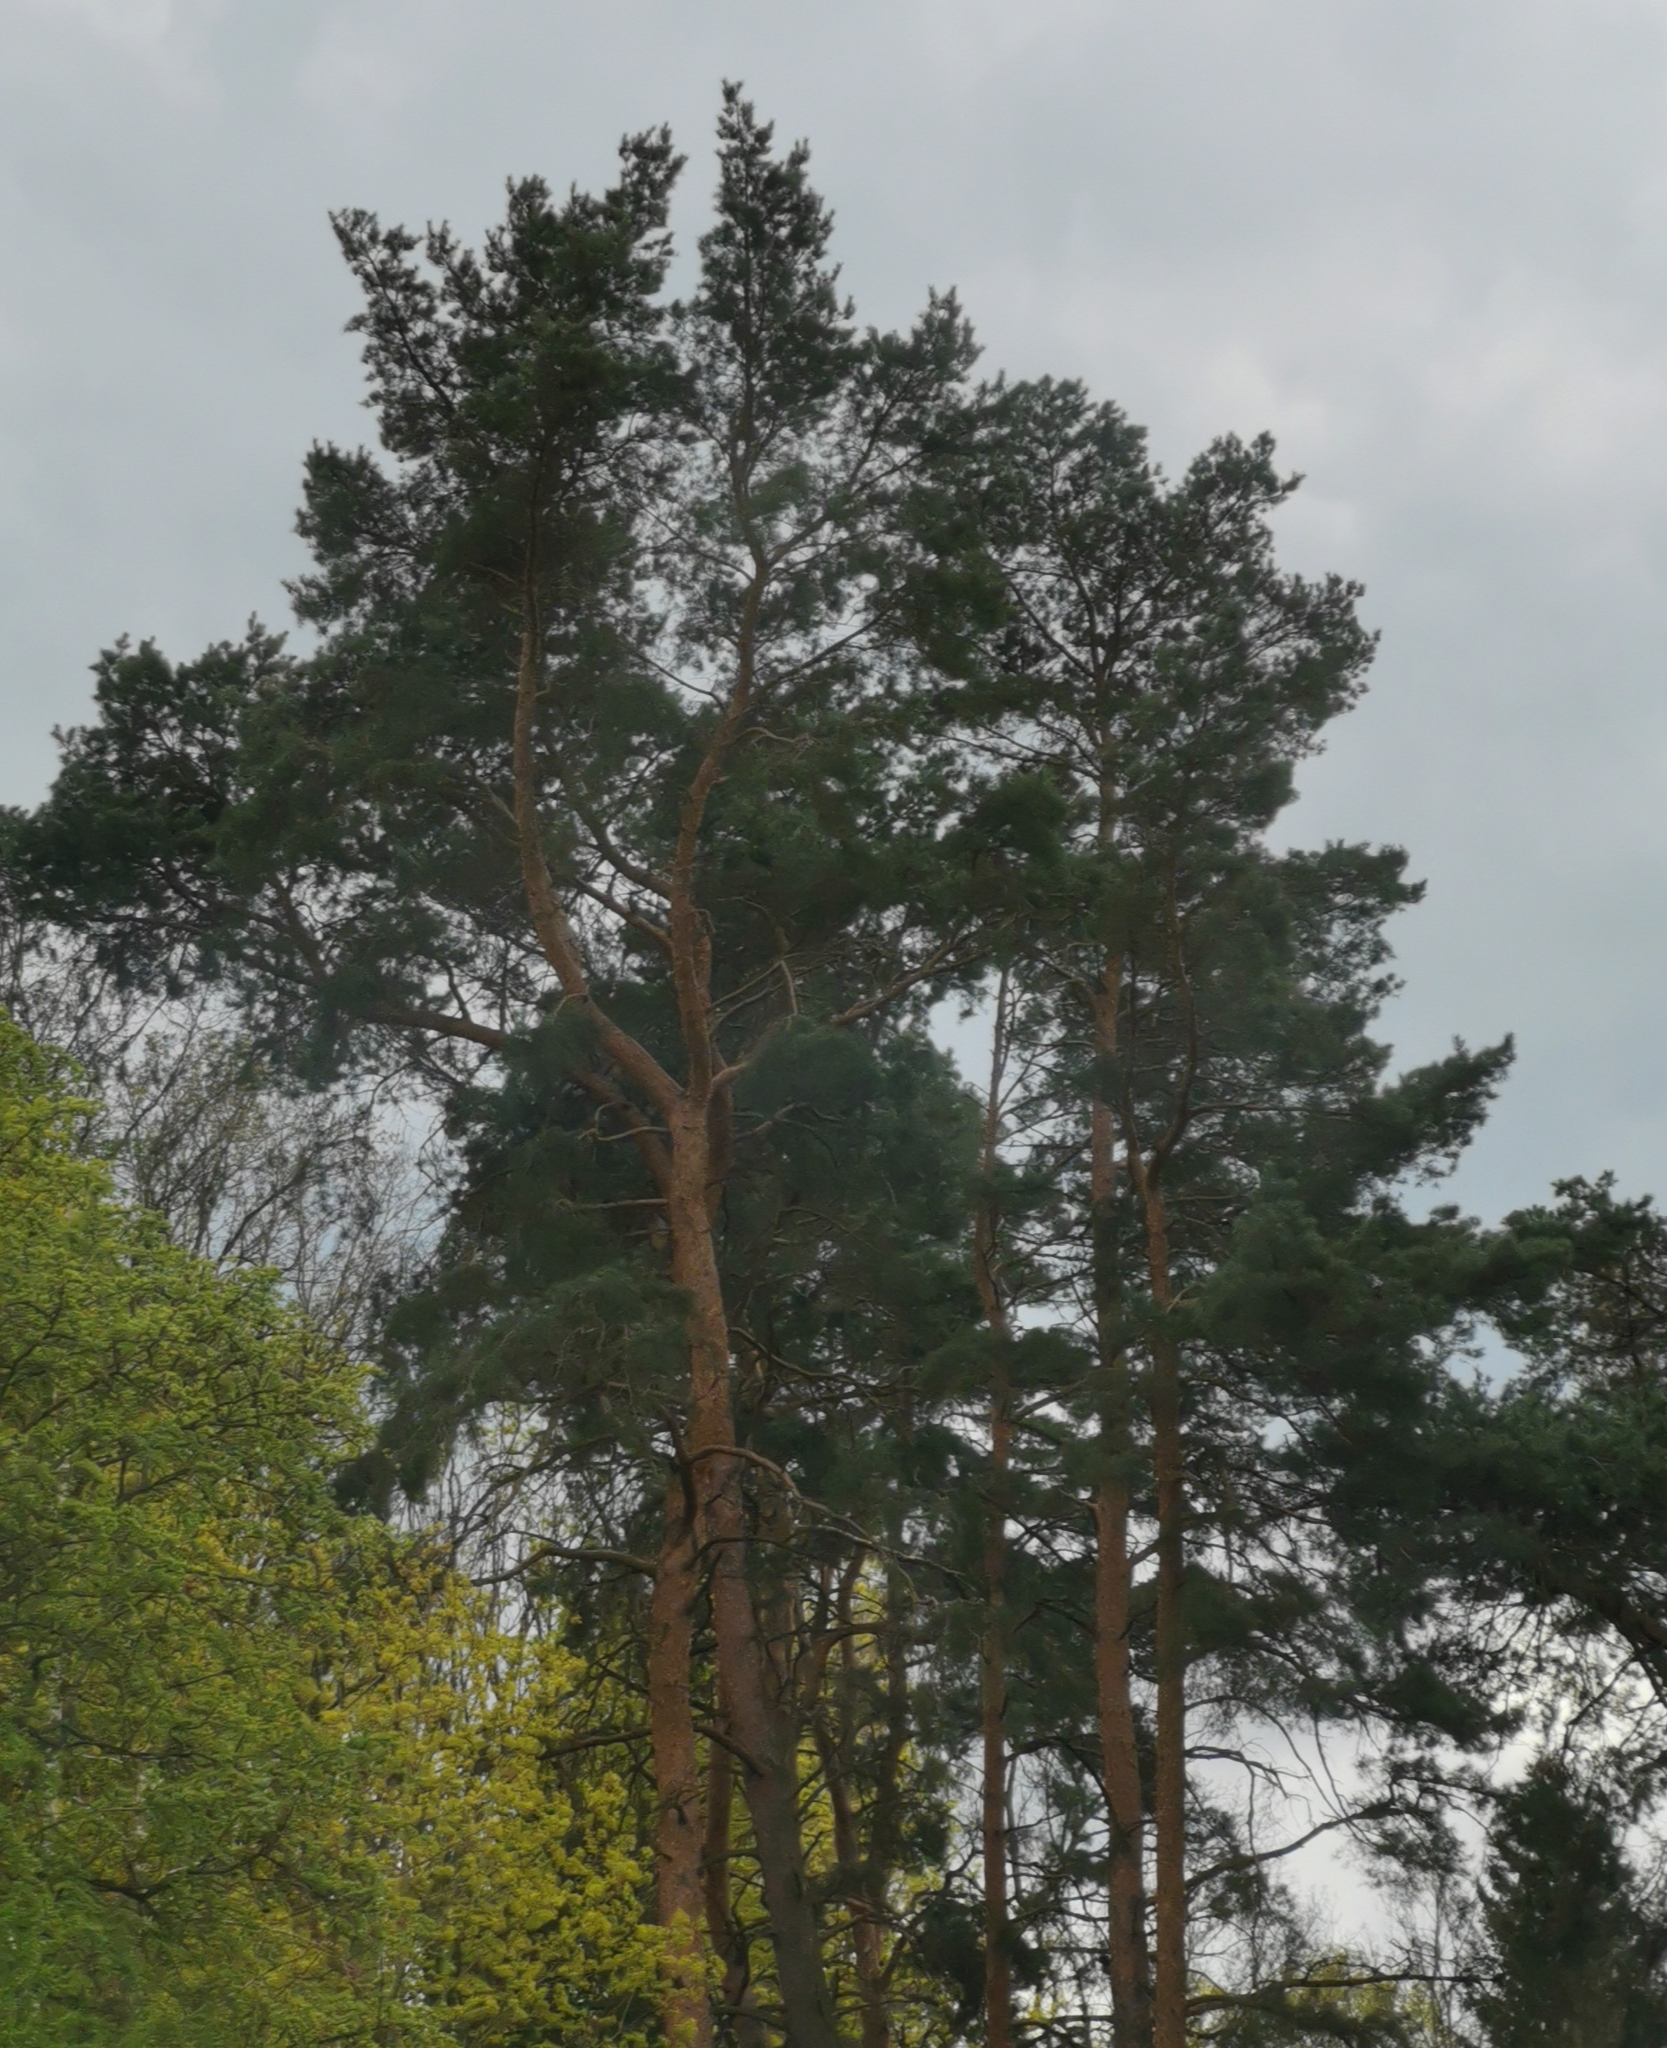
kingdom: Plantae
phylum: Tracheophyta
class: Pinopsida
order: Pinales
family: Pinaceae
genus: Pinus
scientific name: Pinus sylvestris
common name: Scots pine
